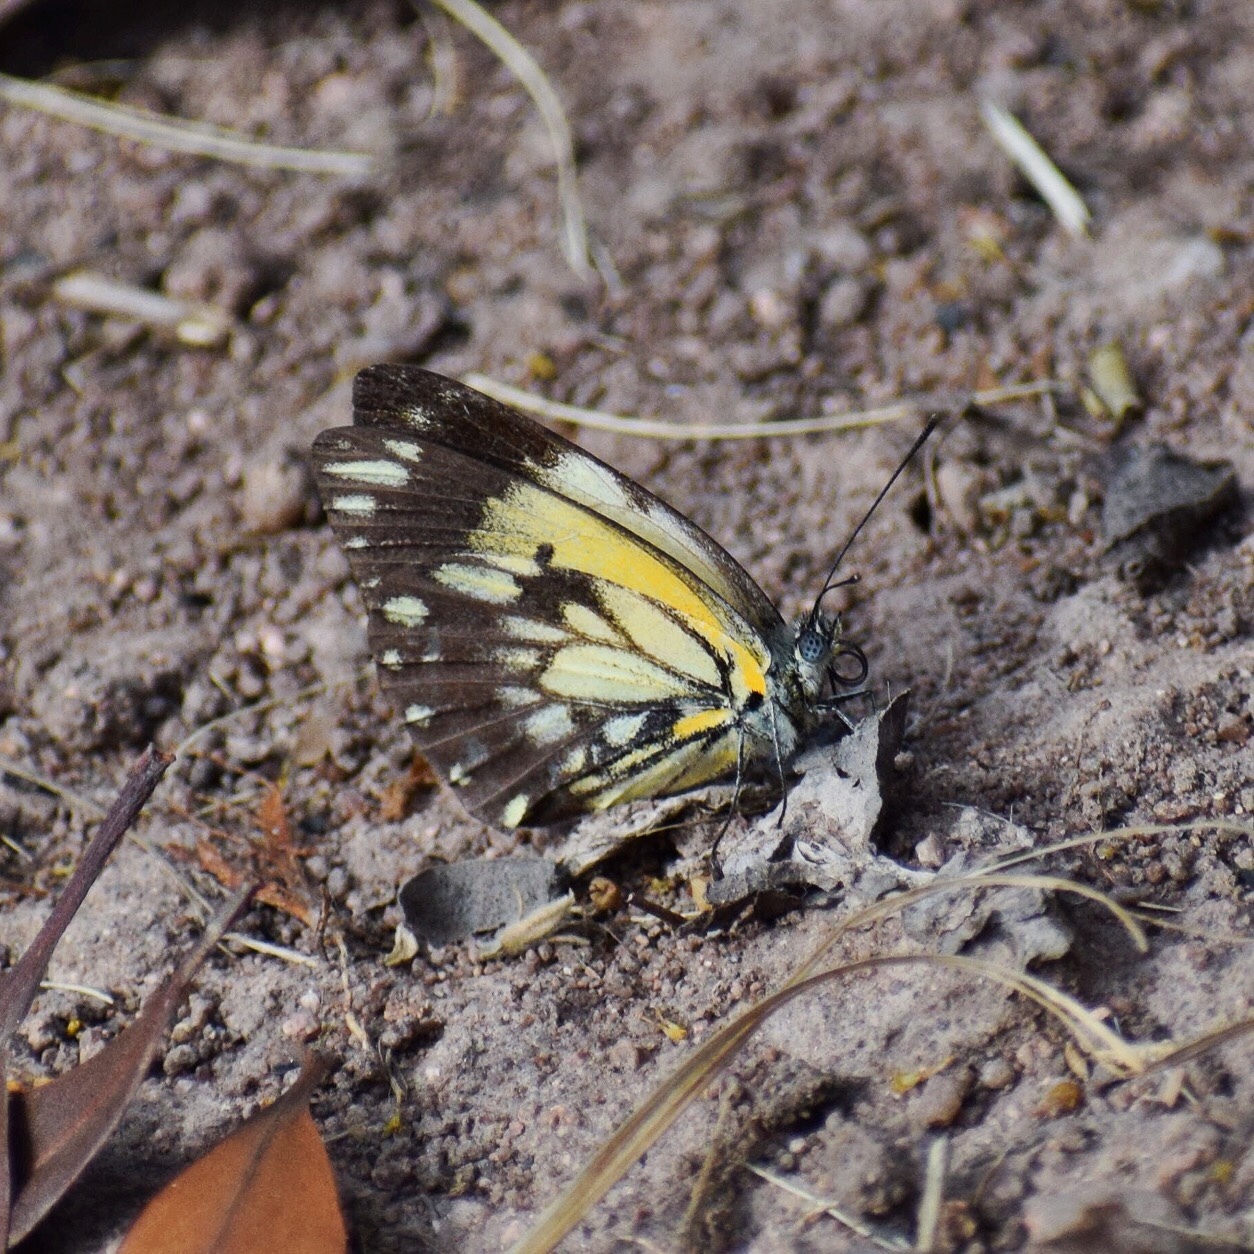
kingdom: Animalia
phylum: Arthropoda
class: Insecta
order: Lepidoptera
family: Pieridae
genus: Belenois
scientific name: Belenois creona
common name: African caper white
